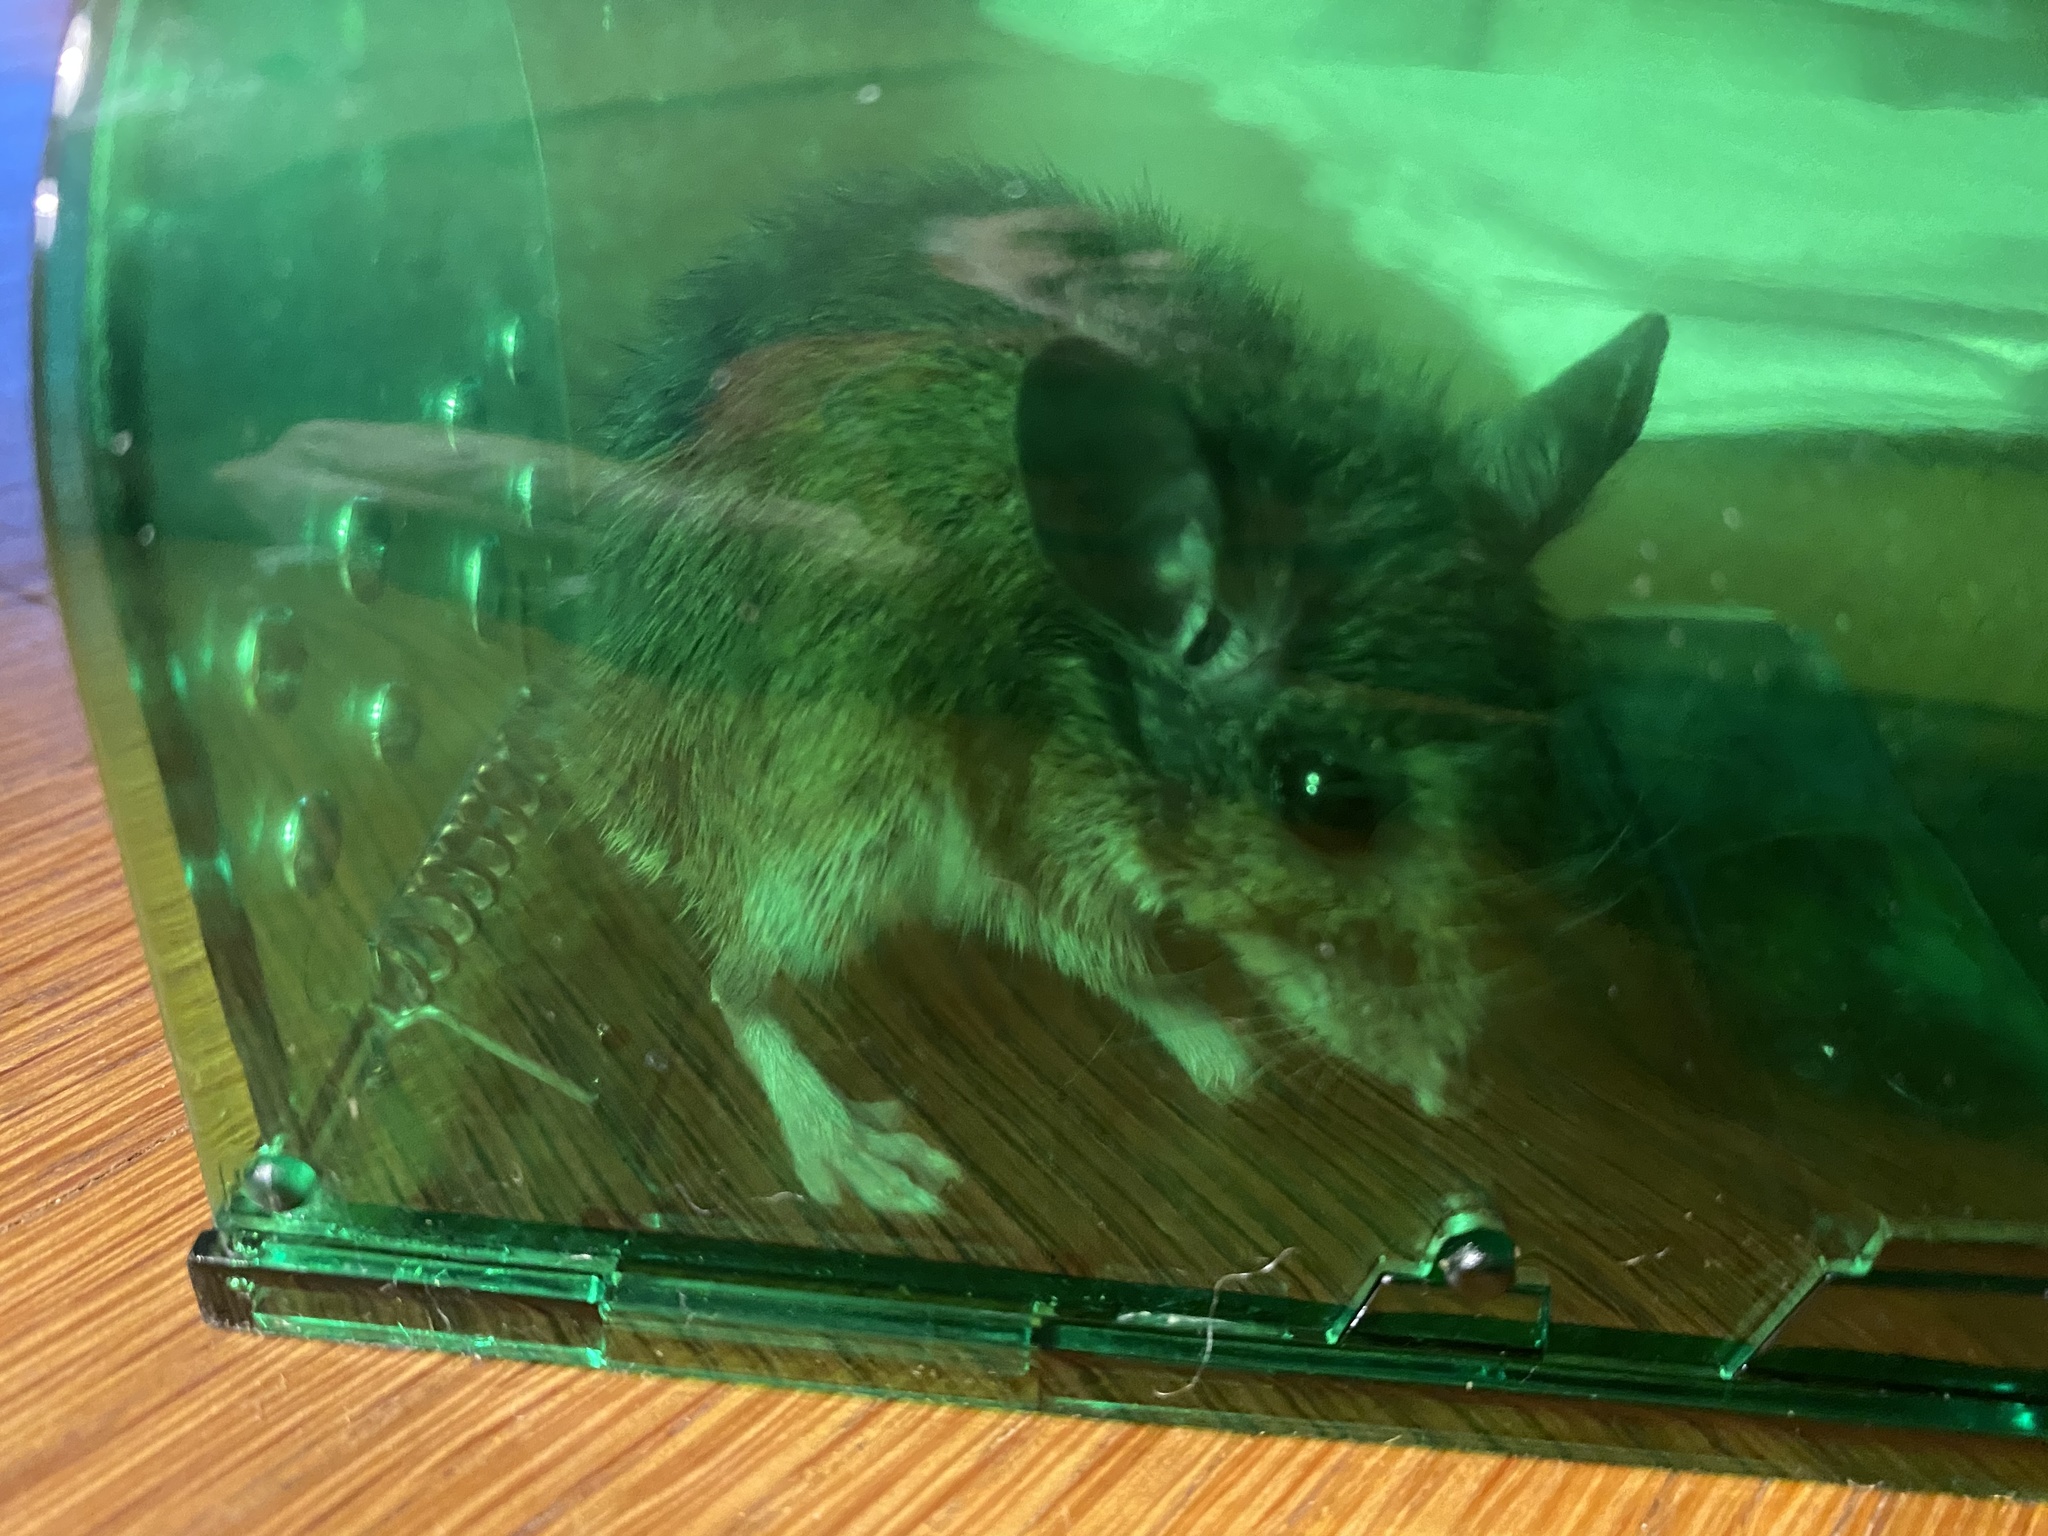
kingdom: Animalia
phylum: Chordata
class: Mammalia
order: Rodentia
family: Cricetidae
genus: Peromyscus
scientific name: Peromyscus leucopus
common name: White-footed deermouse
